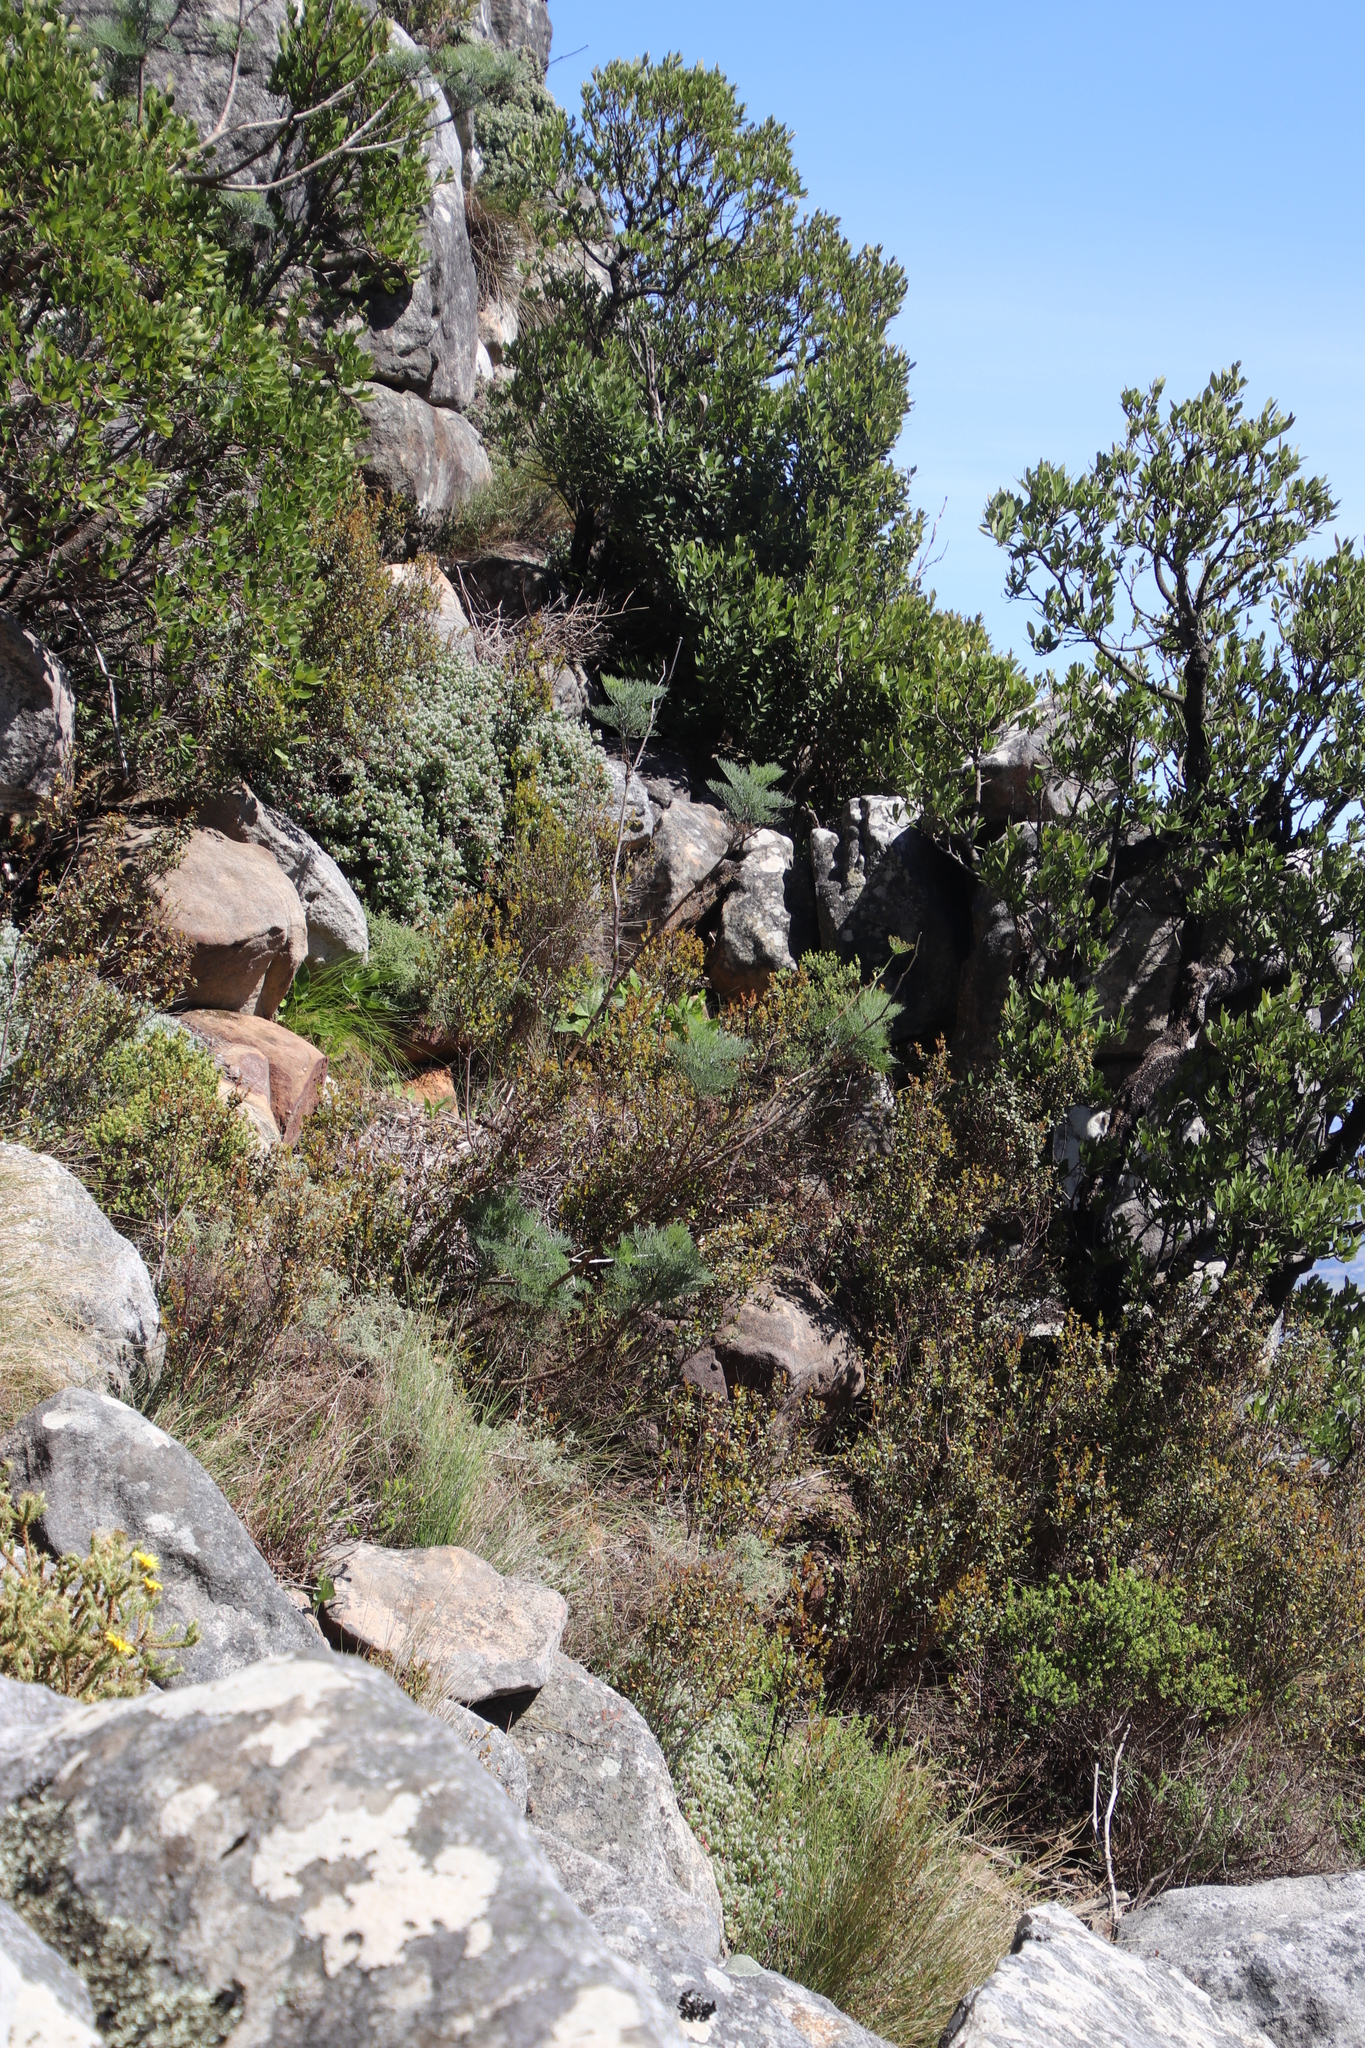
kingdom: Plantae
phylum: Tracheophyta
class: Magnoliopsida
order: Apiales
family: Apiaceae
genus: Notobubon
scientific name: Notobubon capense
